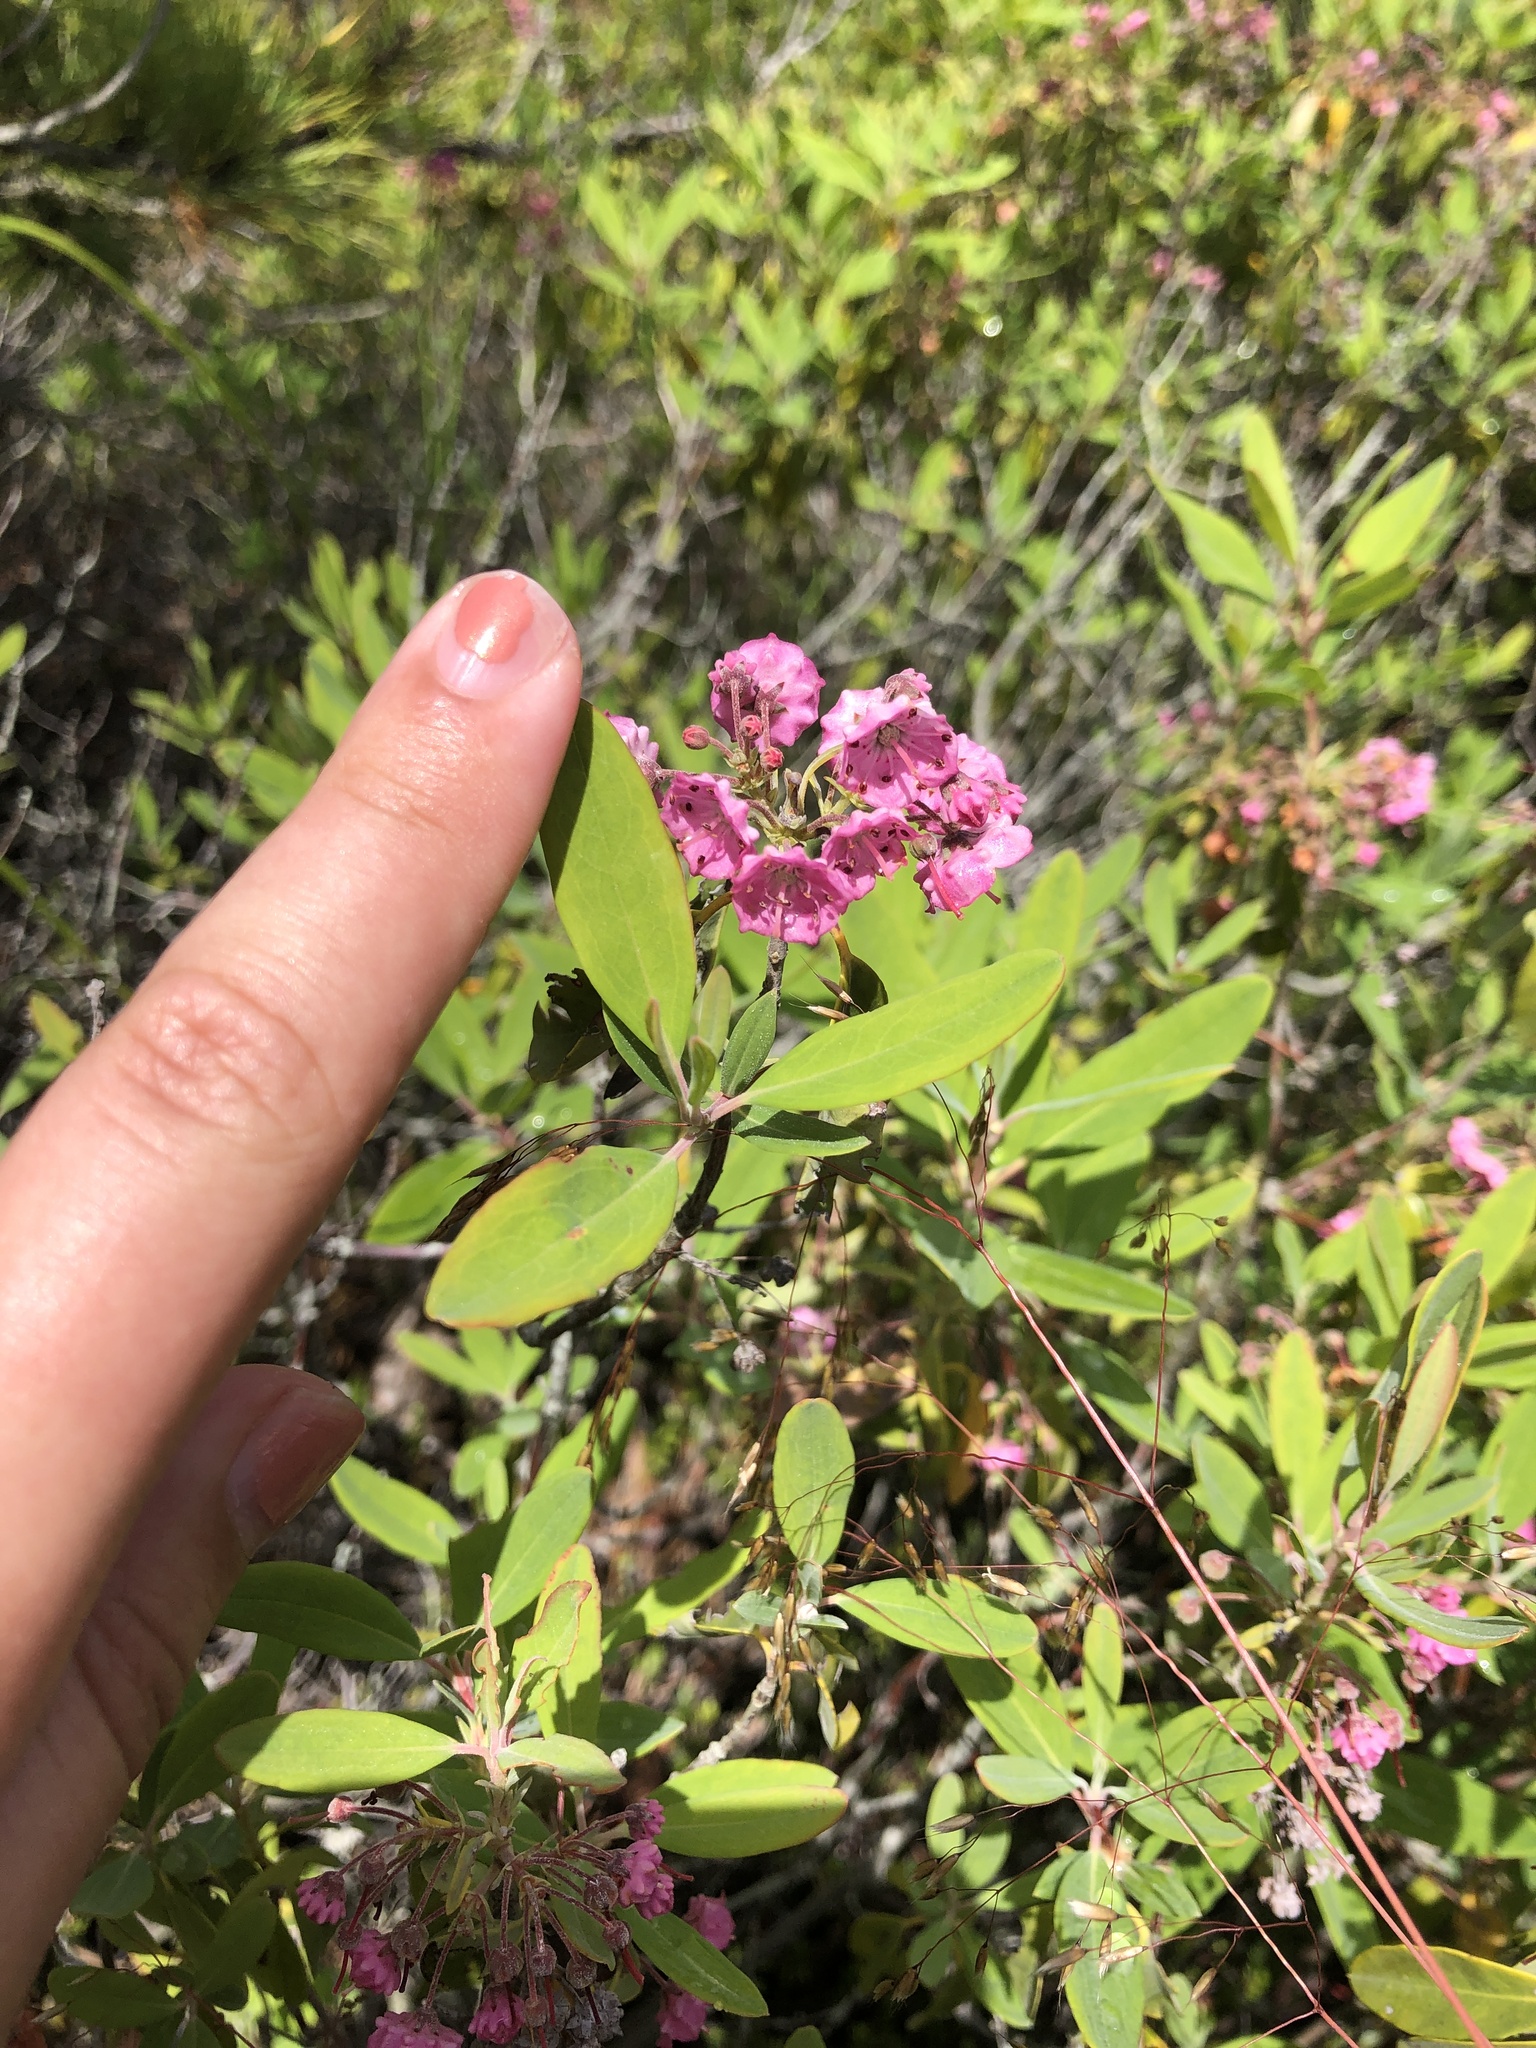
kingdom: Plantae
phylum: Tracheophyta
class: Magnoliopsida
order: Ericales
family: Ericaceae
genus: Kalmia
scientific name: Kalmia angustifolia
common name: Sheep-laurel
